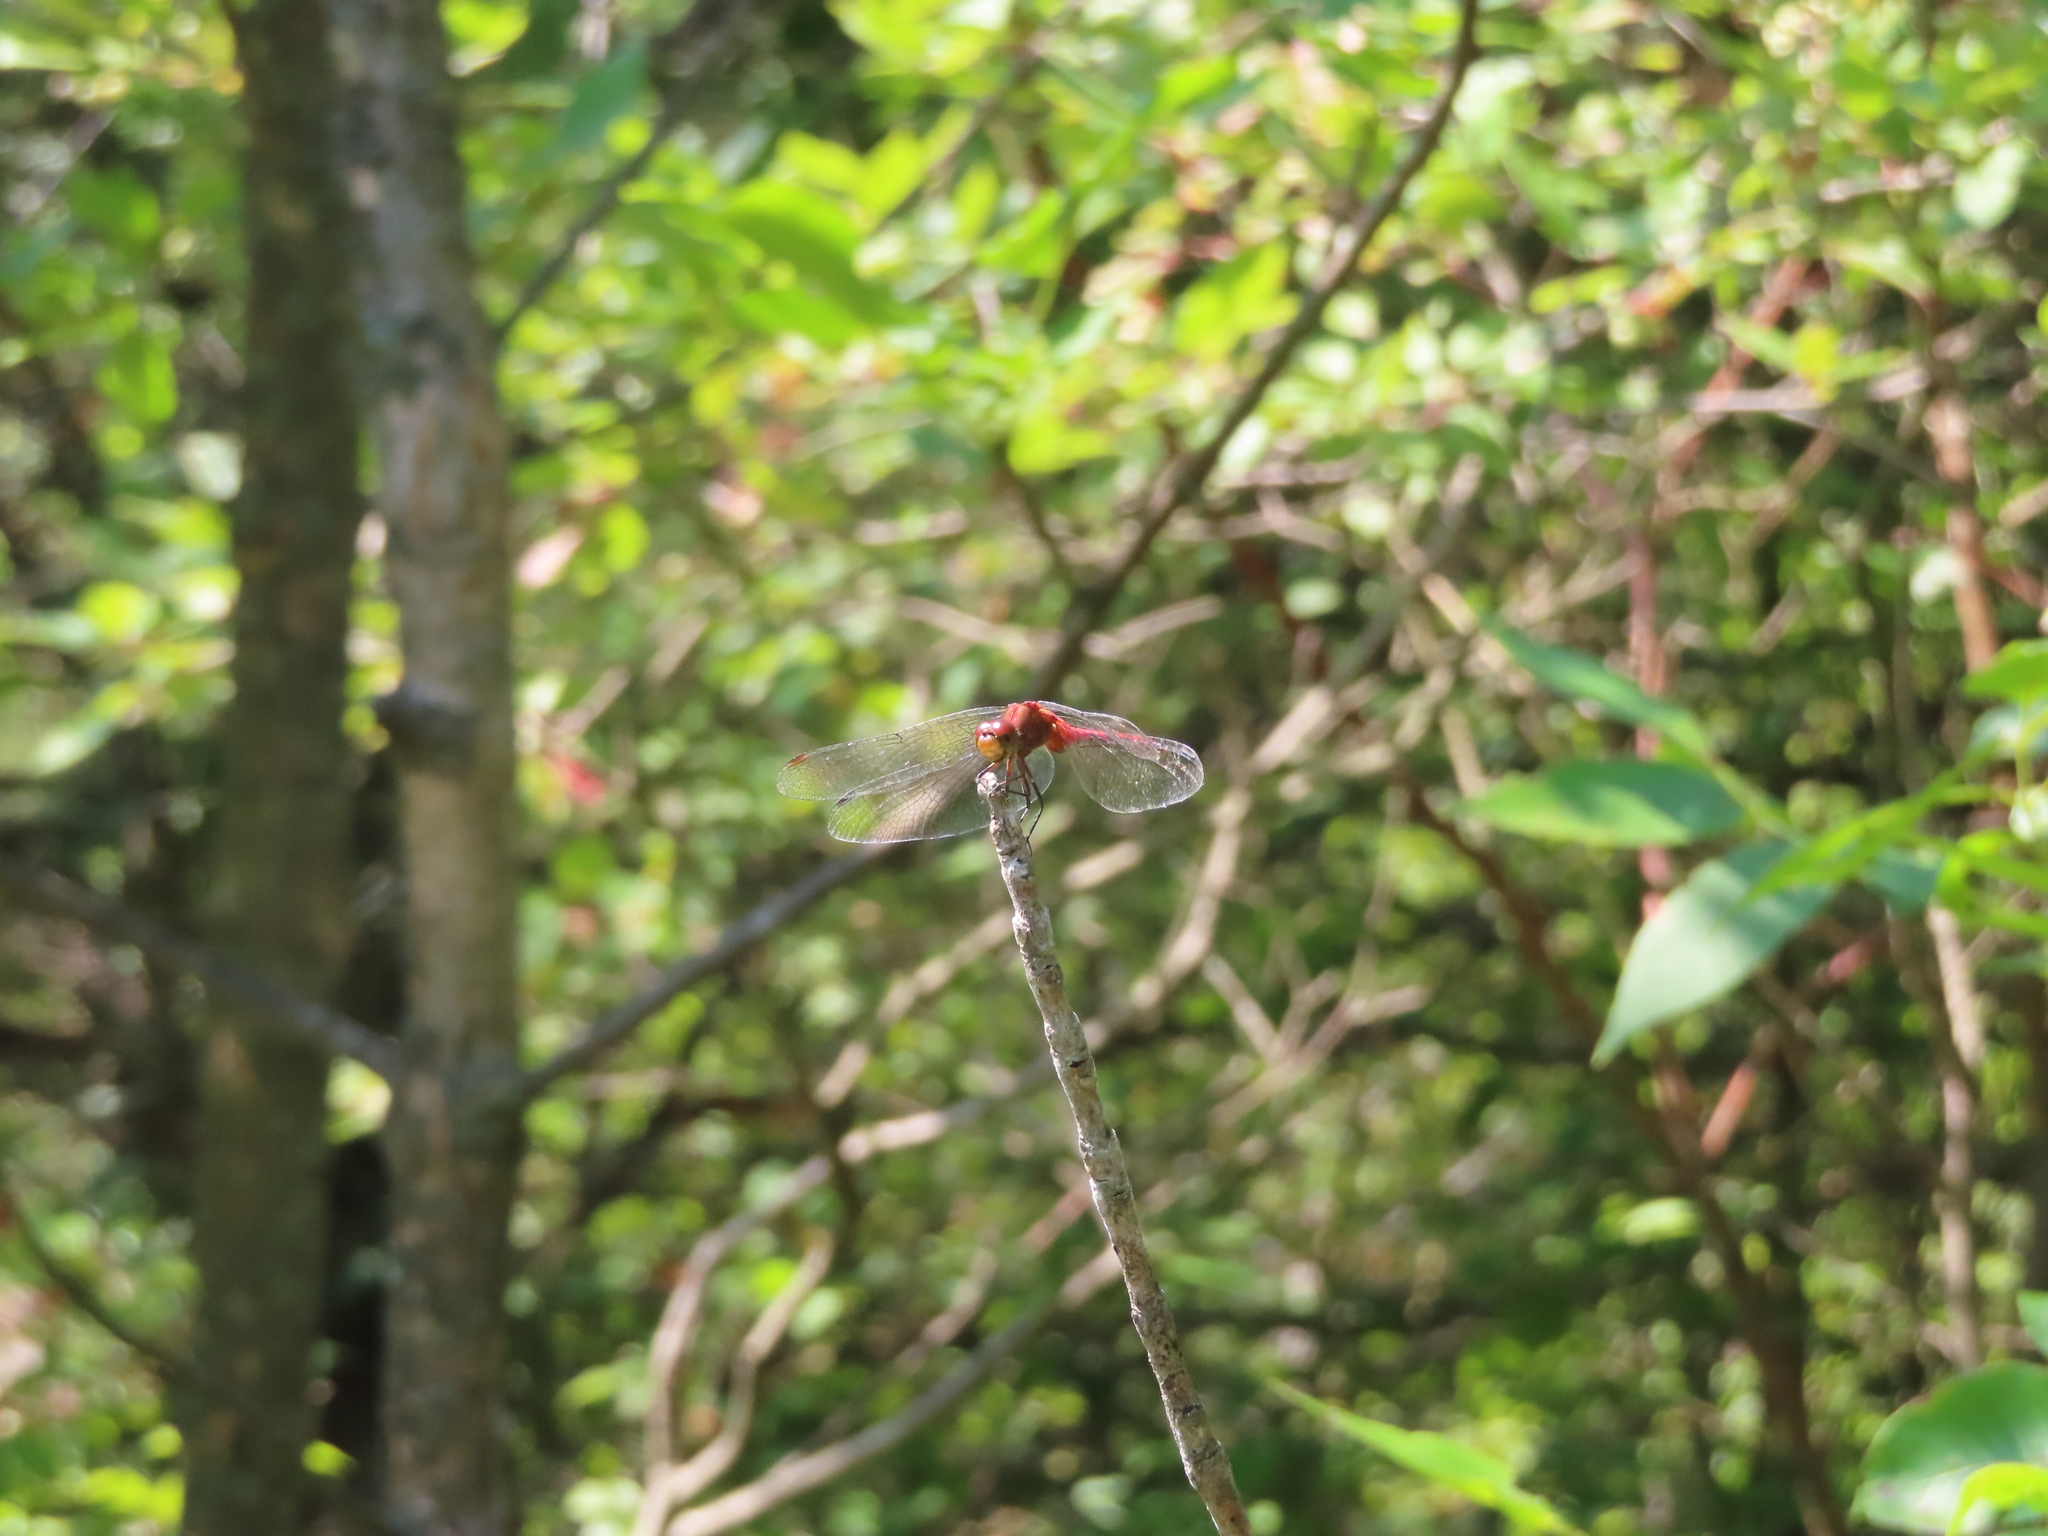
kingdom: Animalia
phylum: Arthropoda
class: Insecta
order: Odonata
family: Libellulidae
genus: Sympetrum
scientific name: Sympetrum
